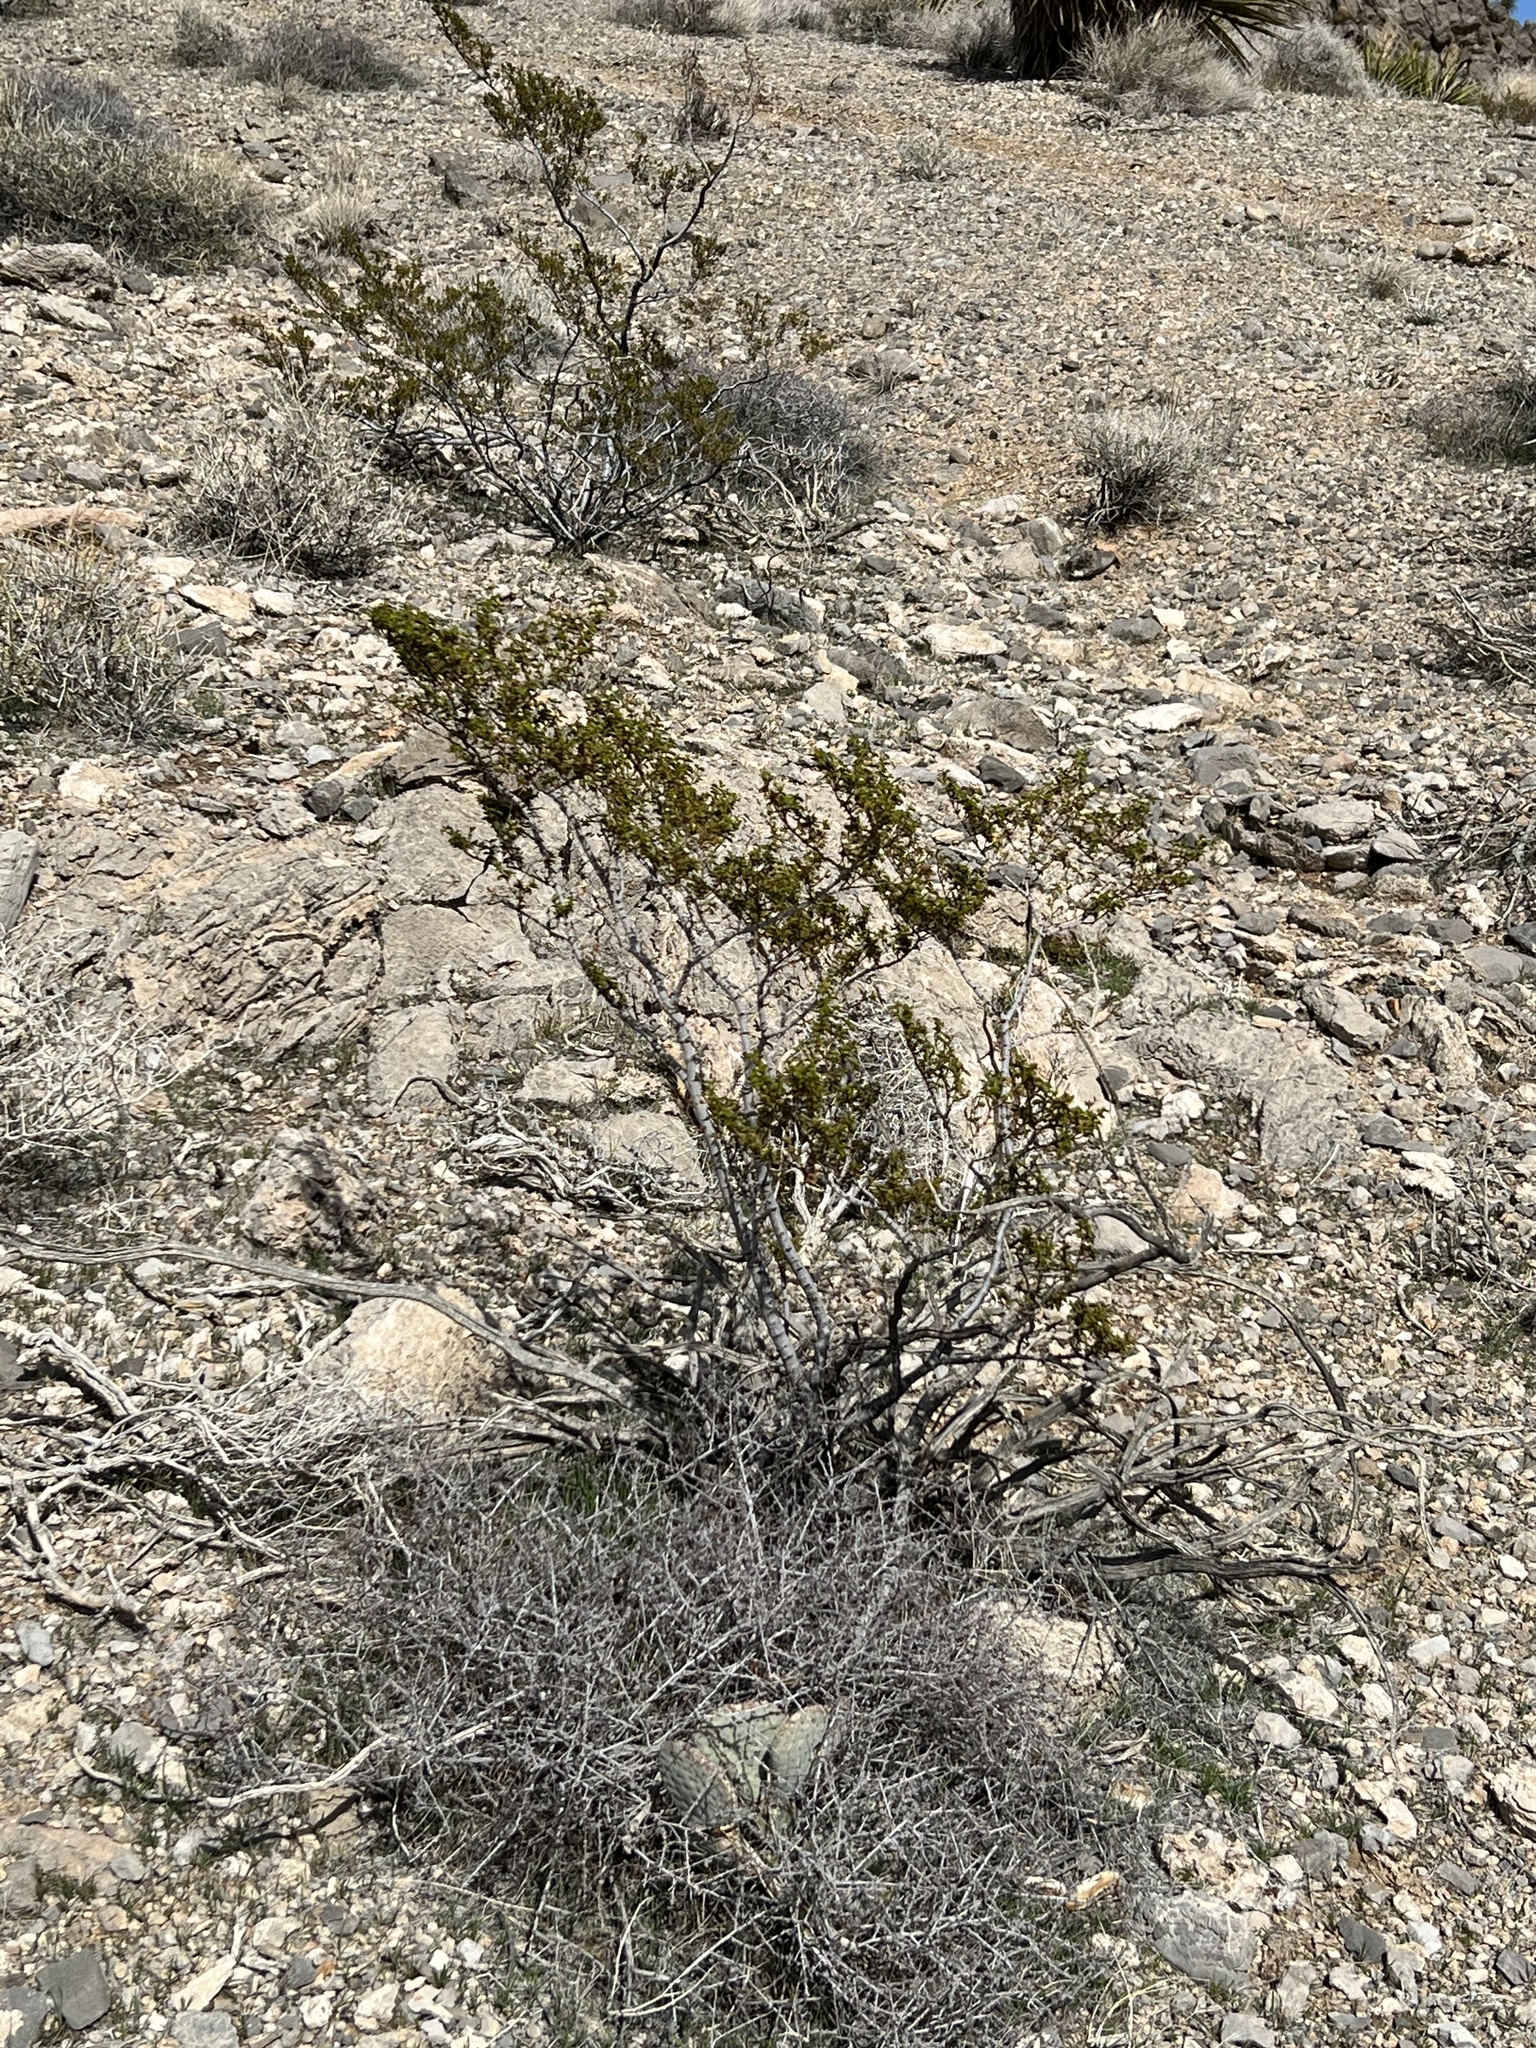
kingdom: Plantae
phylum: Tracheophyta
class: Magnoliopsida
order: Zygophyllales
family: Zygophyllaceae
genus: Larrea
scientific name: Larrea tridentata
